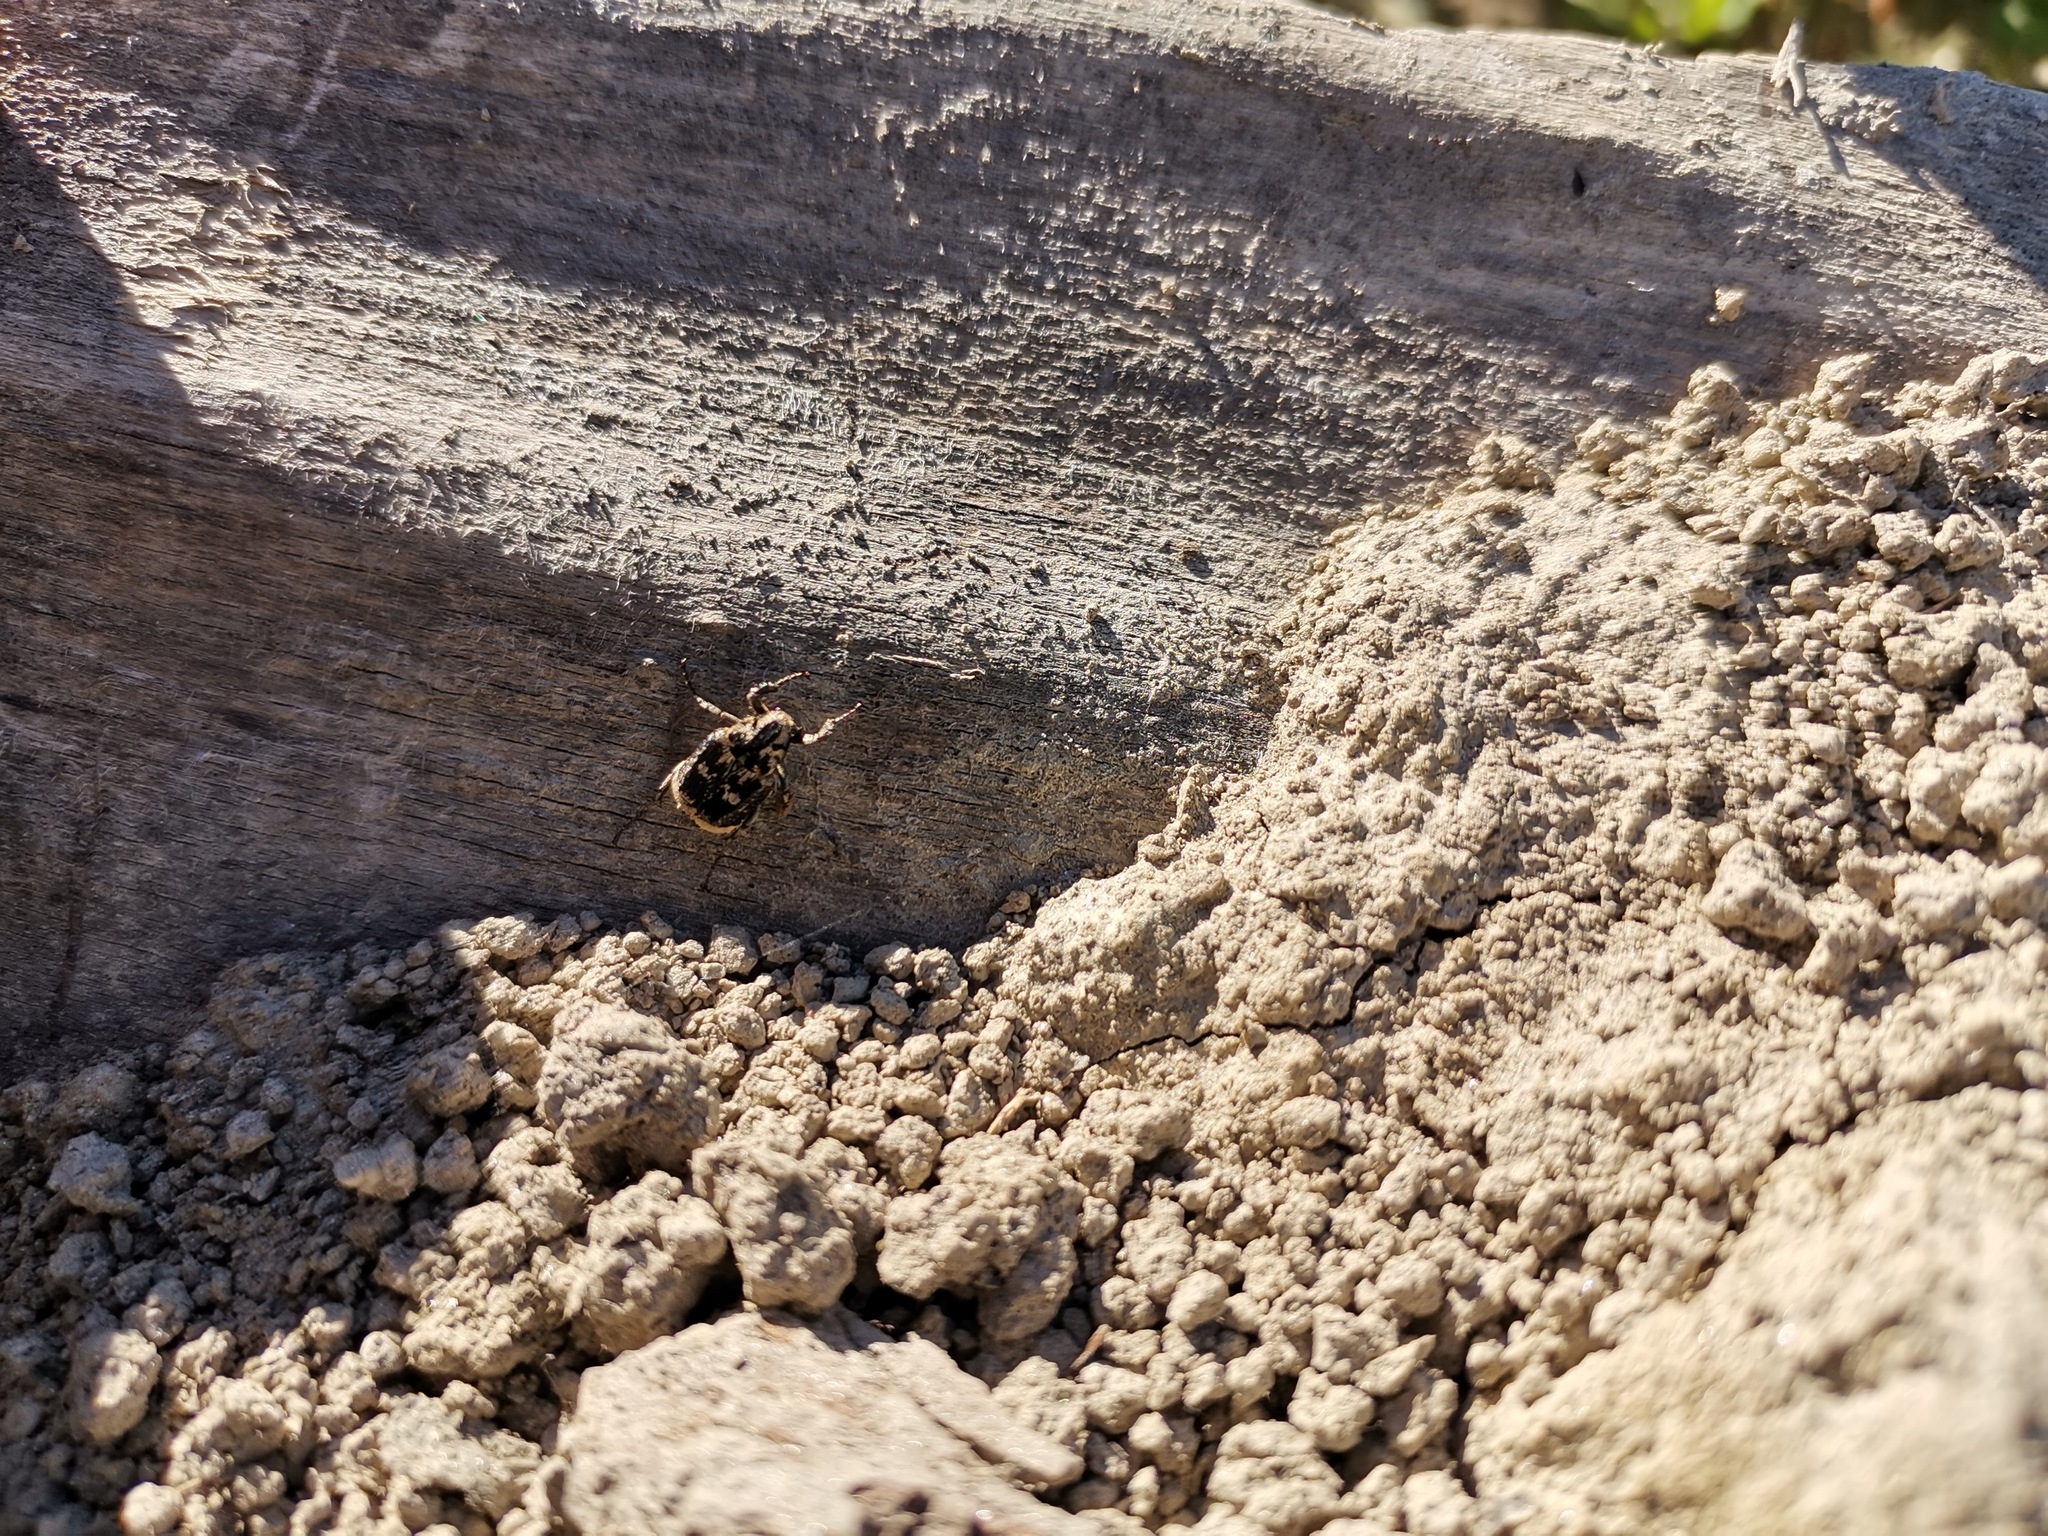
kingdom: Animalia
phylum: Arthropoda
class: Insecta
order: Coleoptera
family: Scarabaeidae
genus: Valgus
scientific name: Valgus hemipterus
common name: Bug flower chafer
